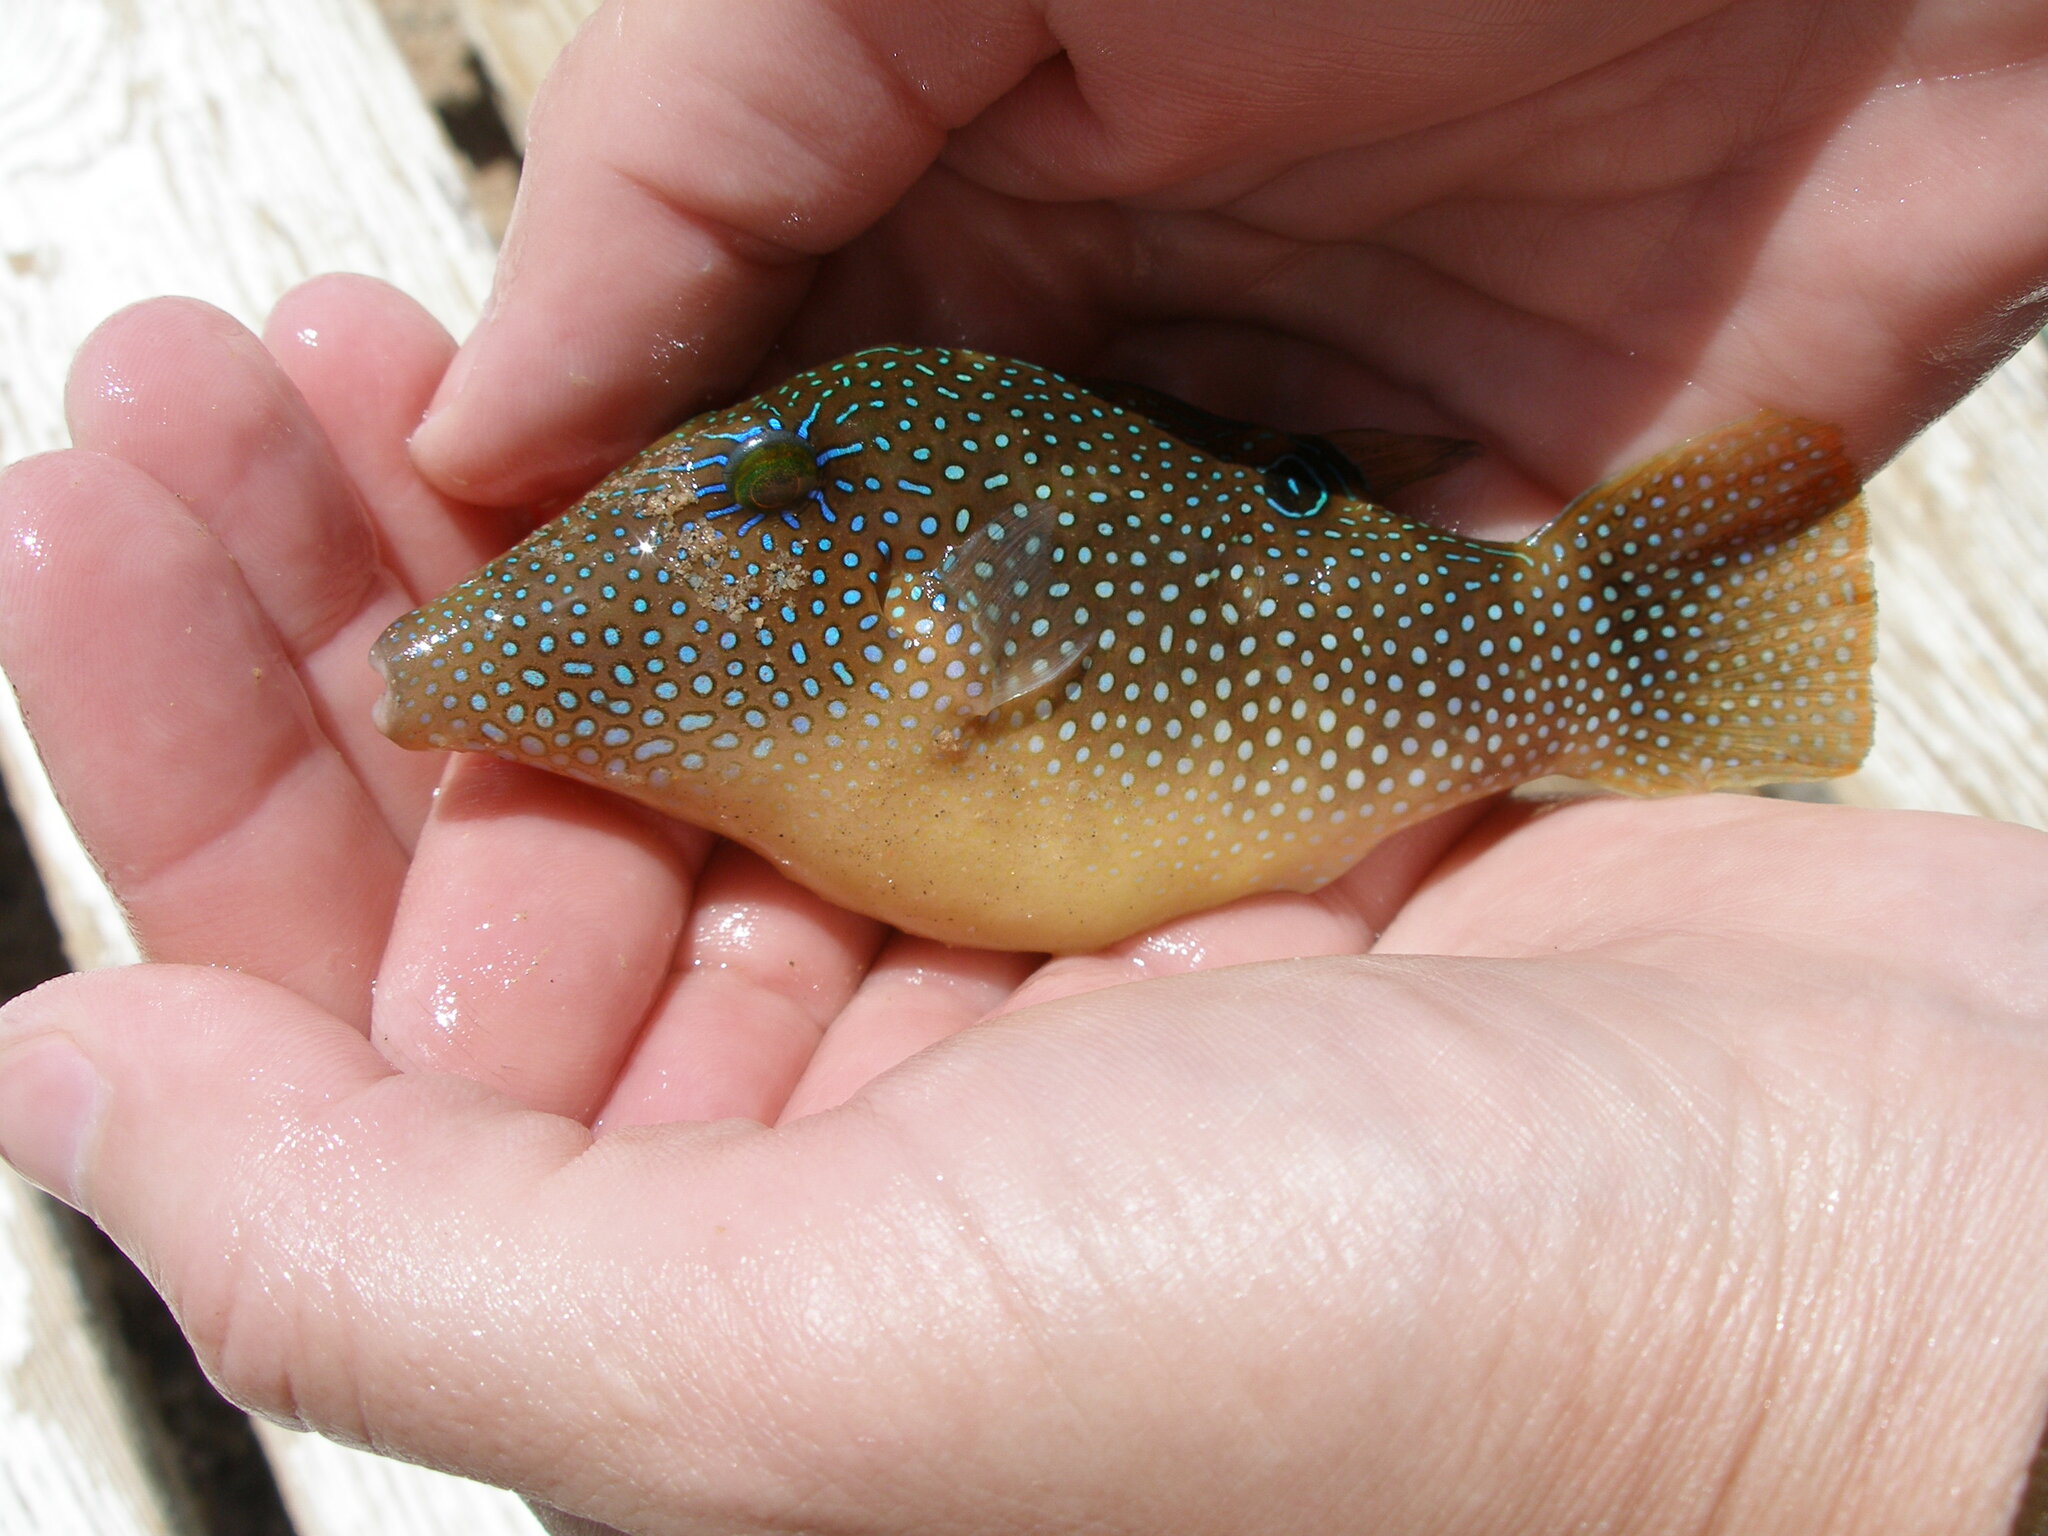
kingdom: Animalia
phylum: Chordata
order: Tetraodontiformes
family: Tetraodontidae
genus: Canthigaster
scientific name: Canthigaster margaritata
